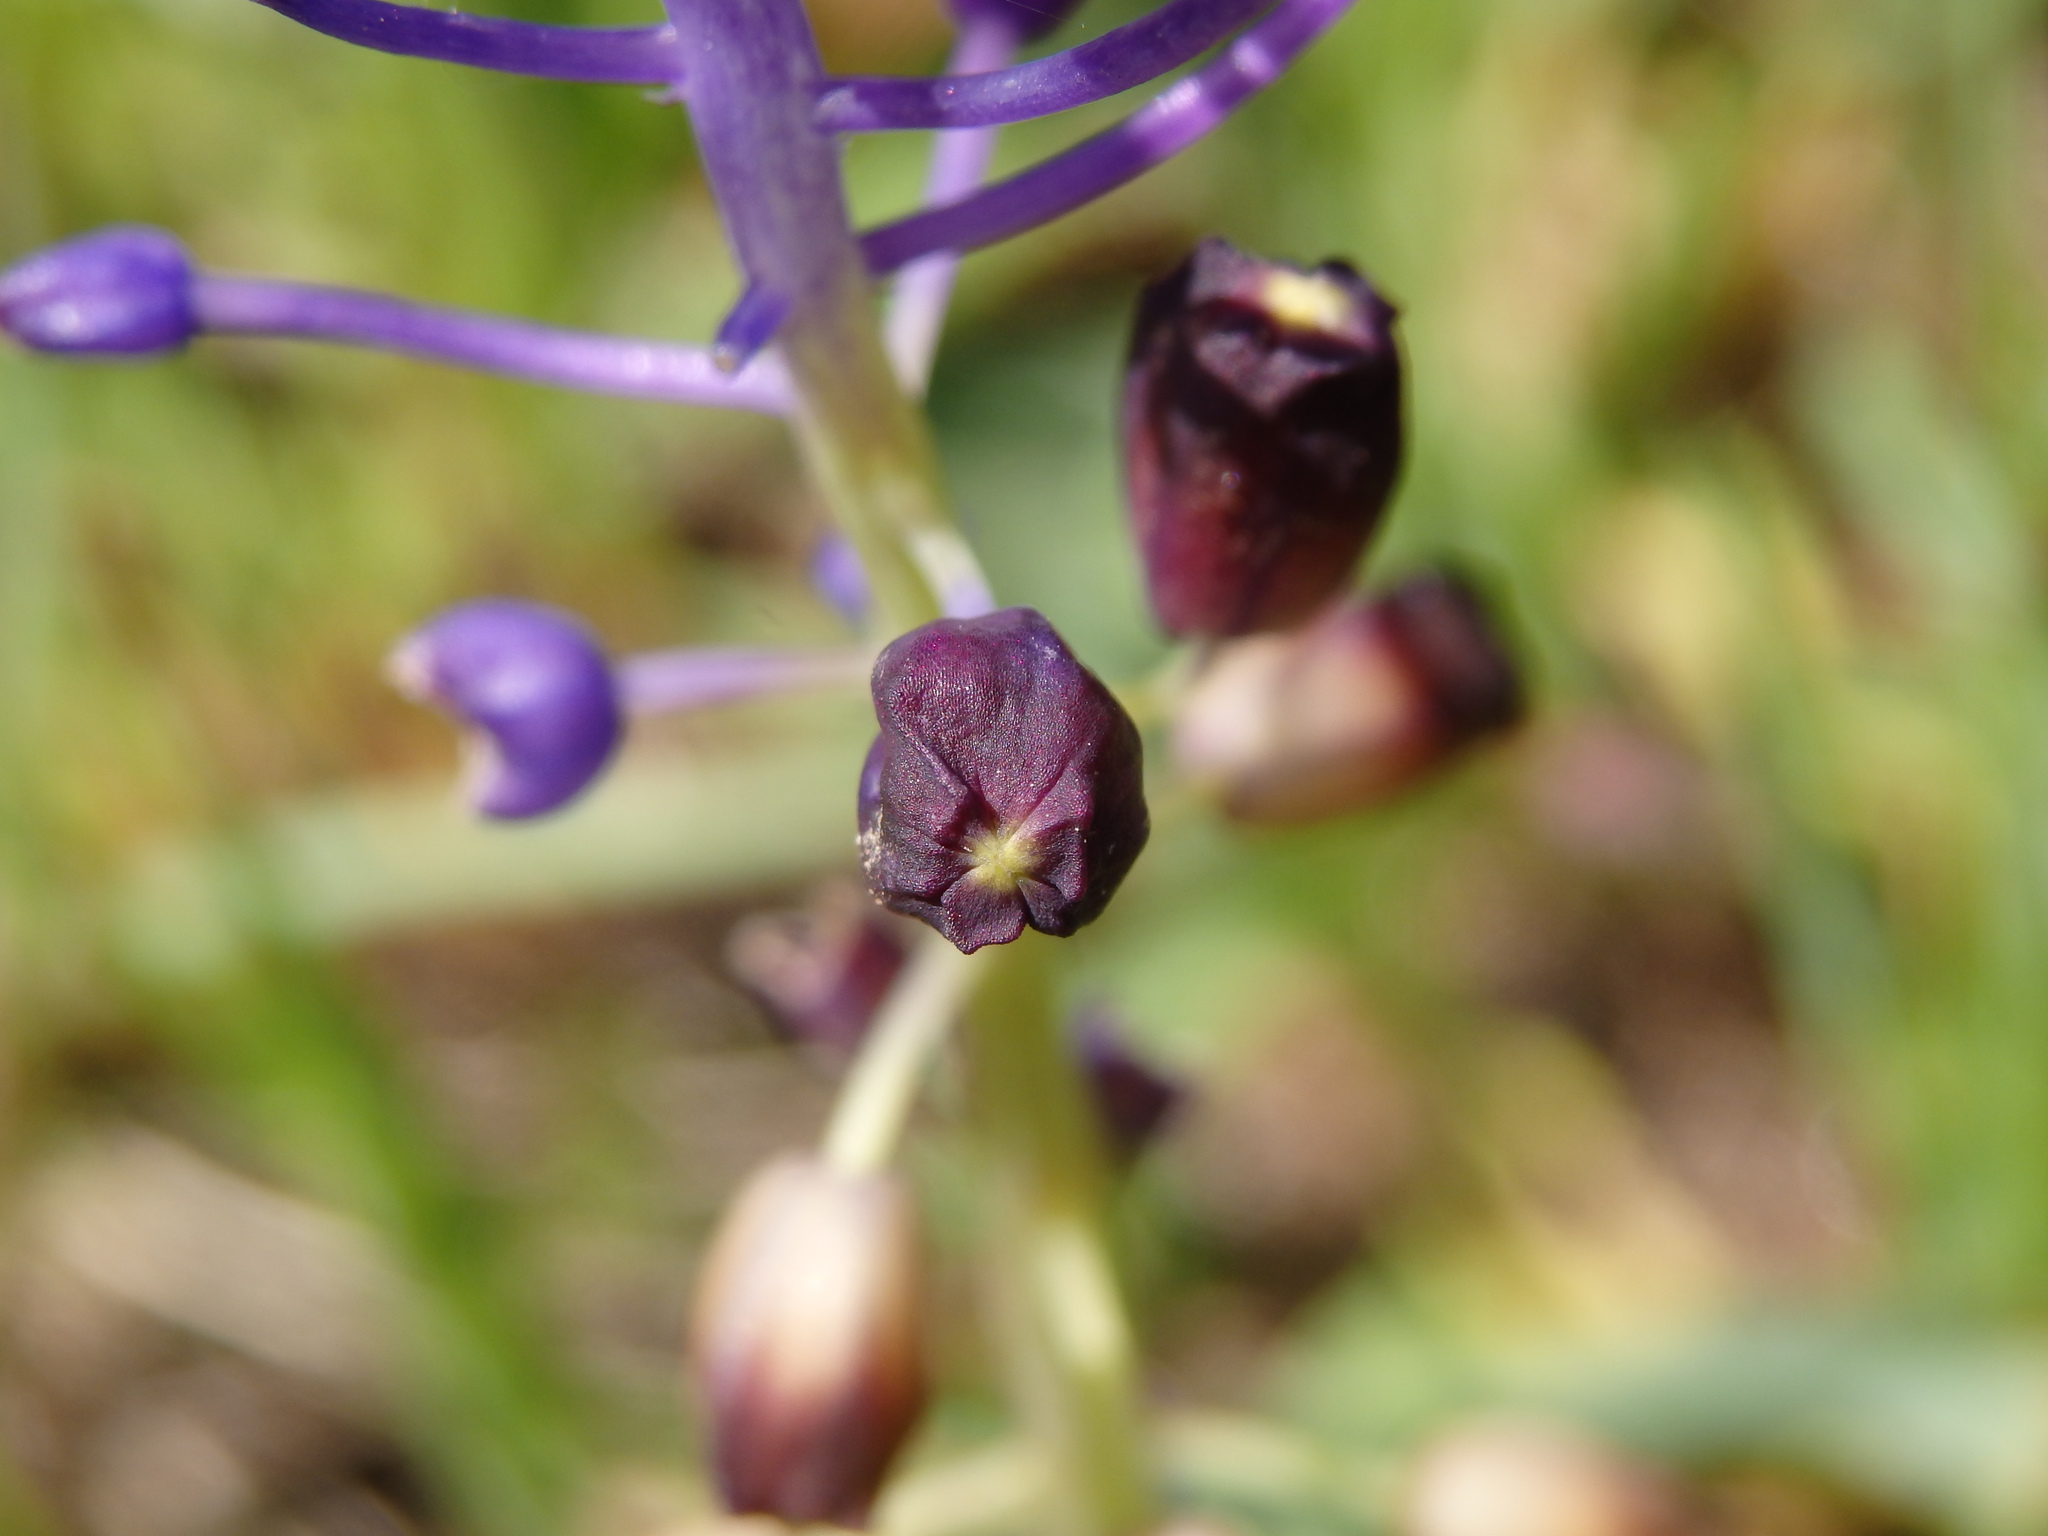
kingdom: Plantae
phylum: Tracheophyta
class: Liliopsida
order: Asparagales
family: Asparagaceae
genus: Muscari
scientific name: Muscari comosum
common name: Tassel hyacinth
